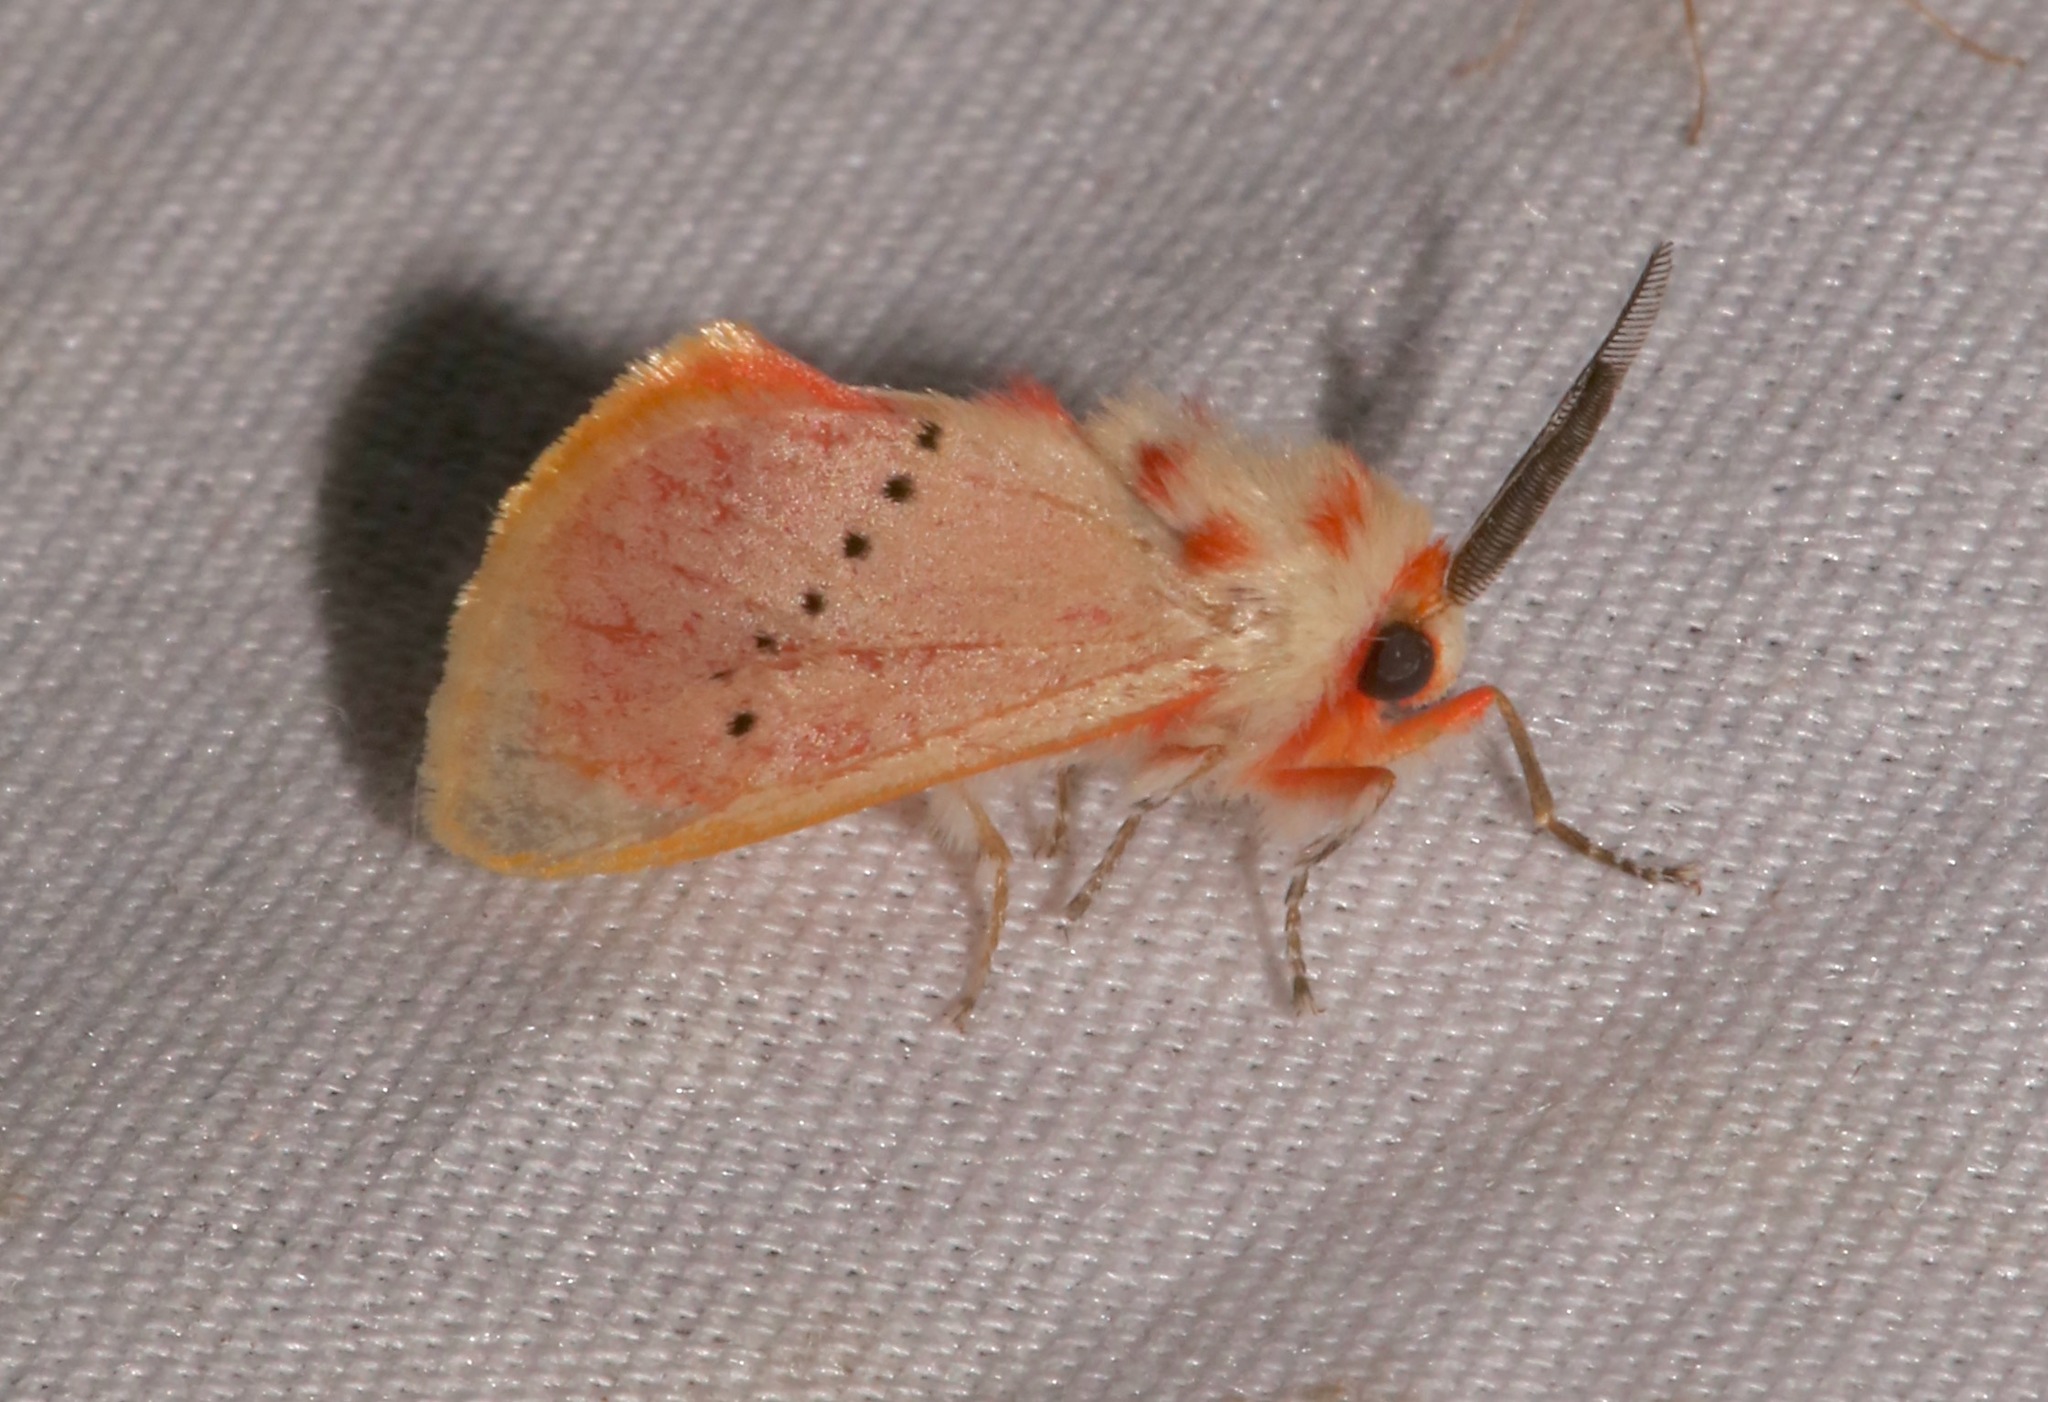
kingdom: Animalia
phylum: Arthropoda
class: Insecta
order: Lepidoptera
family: Megalopygidae
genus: Trosia
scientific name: Trosia obsolescens
